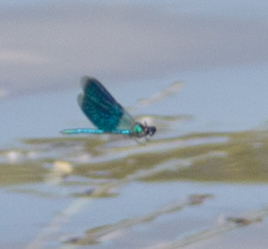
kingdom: Animalia
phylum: Arthropoda
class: Insecta
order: Odonata
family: Calopterygidae
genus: Calopteryx
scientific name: Calopteryx splendens
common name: Banded demoiselle
